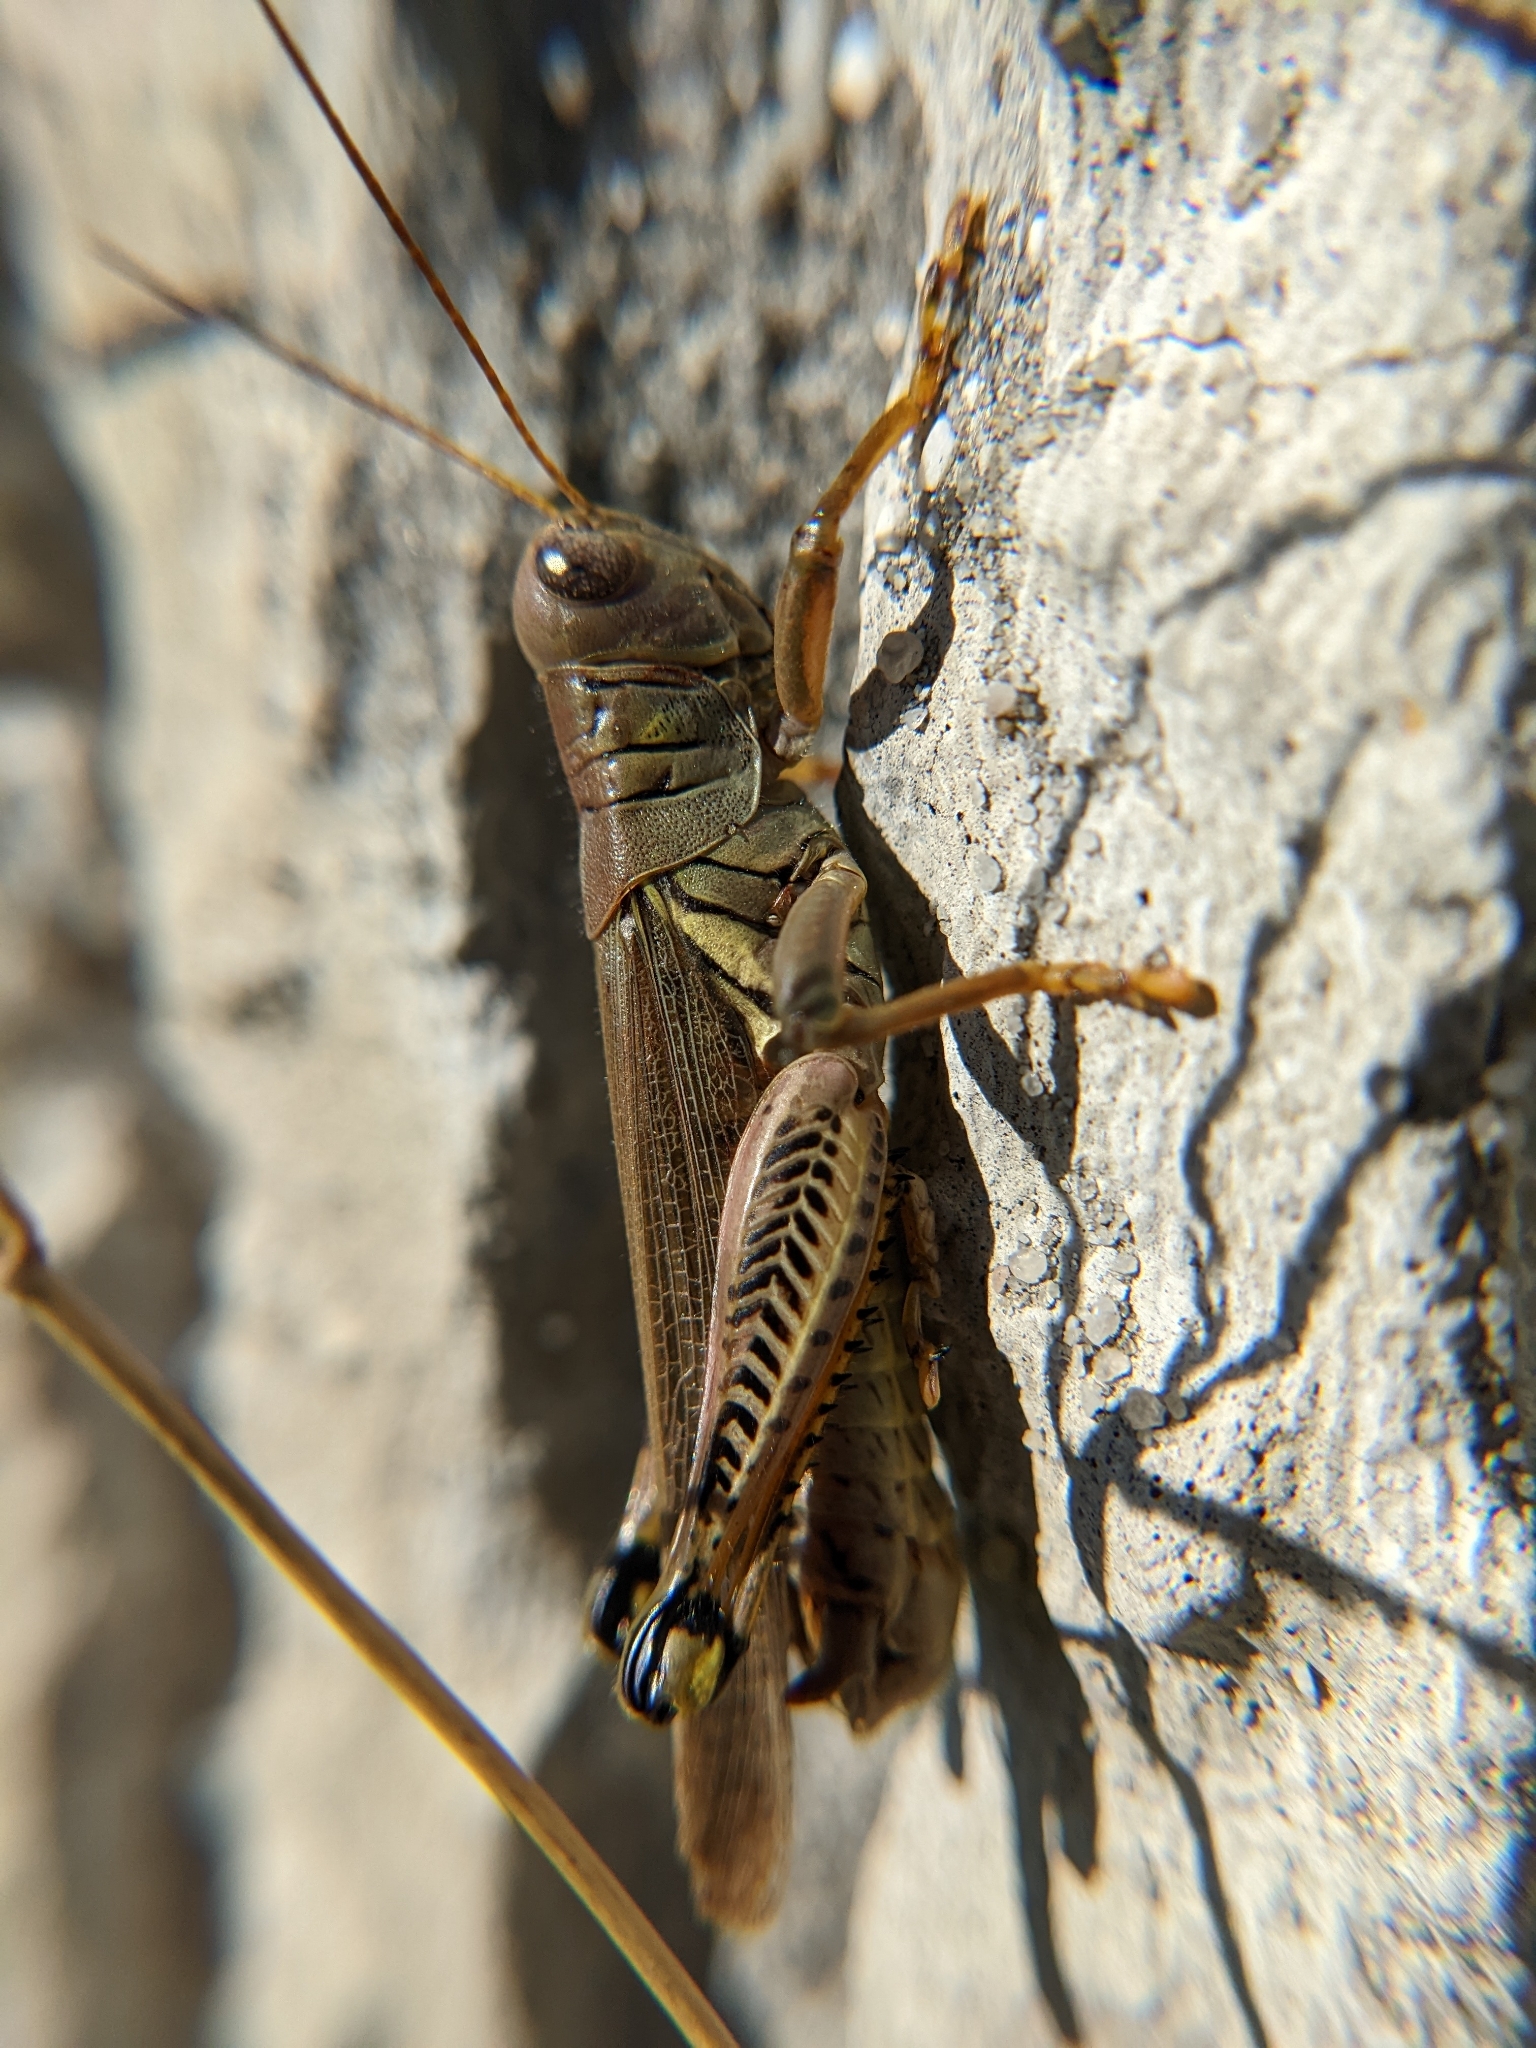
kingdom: Animalia
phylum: Arthropoda
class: Insecta
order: Orthoptera
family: Acrididae
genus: Melanoplus
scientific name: Melanoplus differentialis
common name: Differential grasshopper
